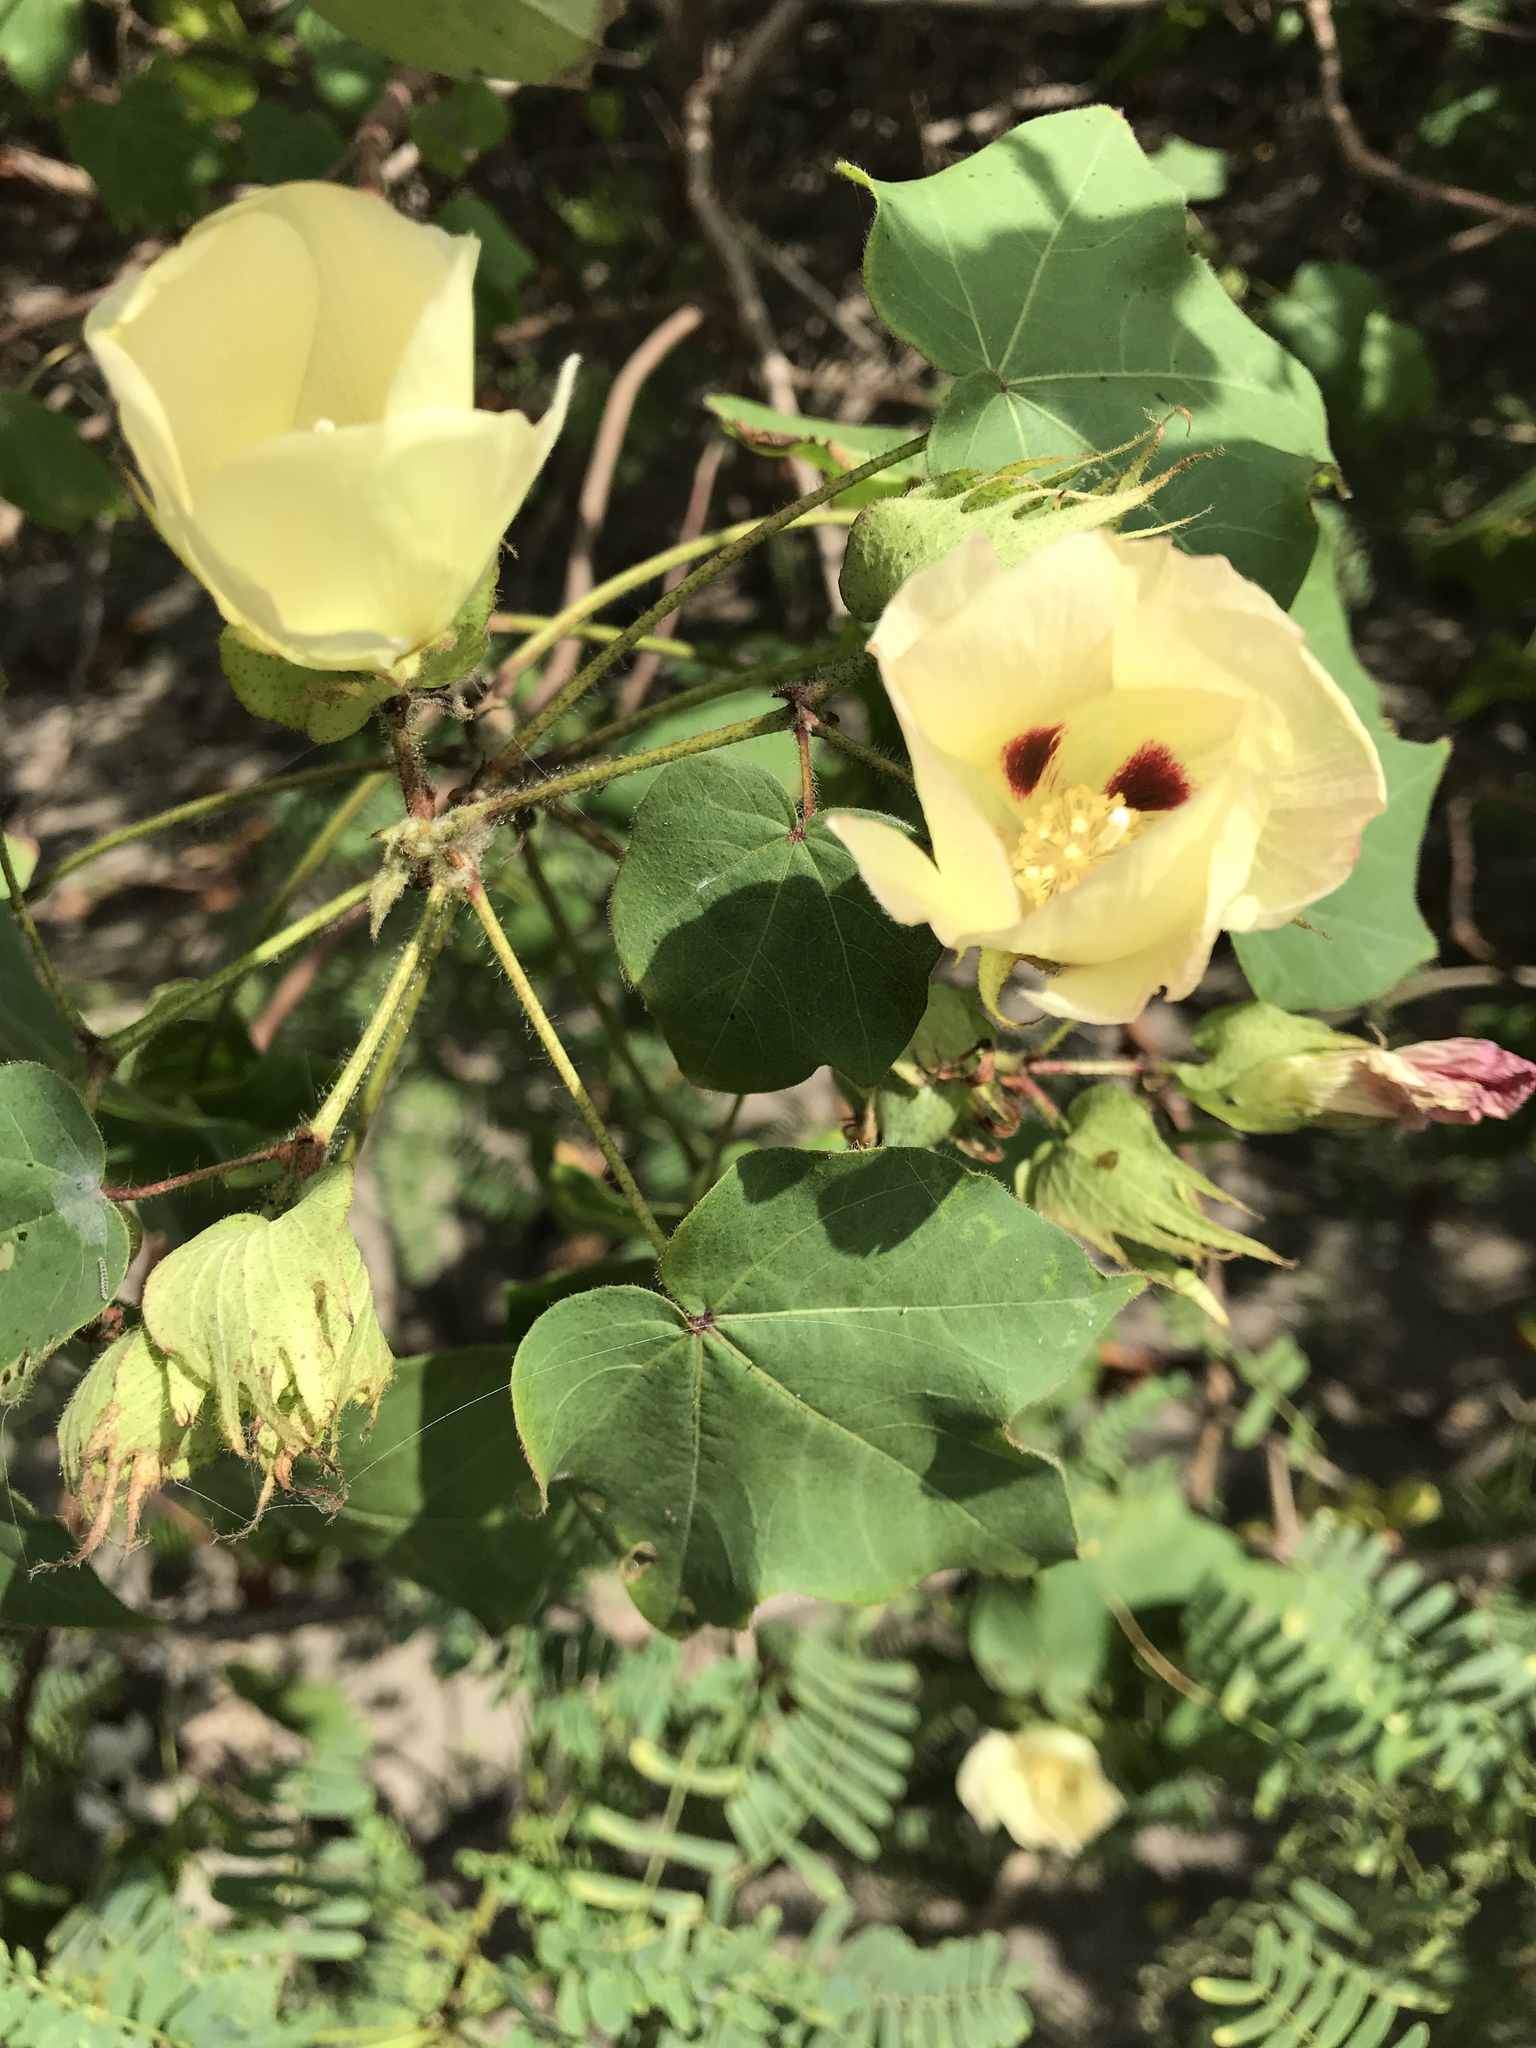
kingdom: Plantae
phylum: Tracheophyta
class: Magnoliopsida
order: Malvales
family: Malvaceae
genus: Gossypium
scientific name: Gossypium hirsutum
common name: Cotton
